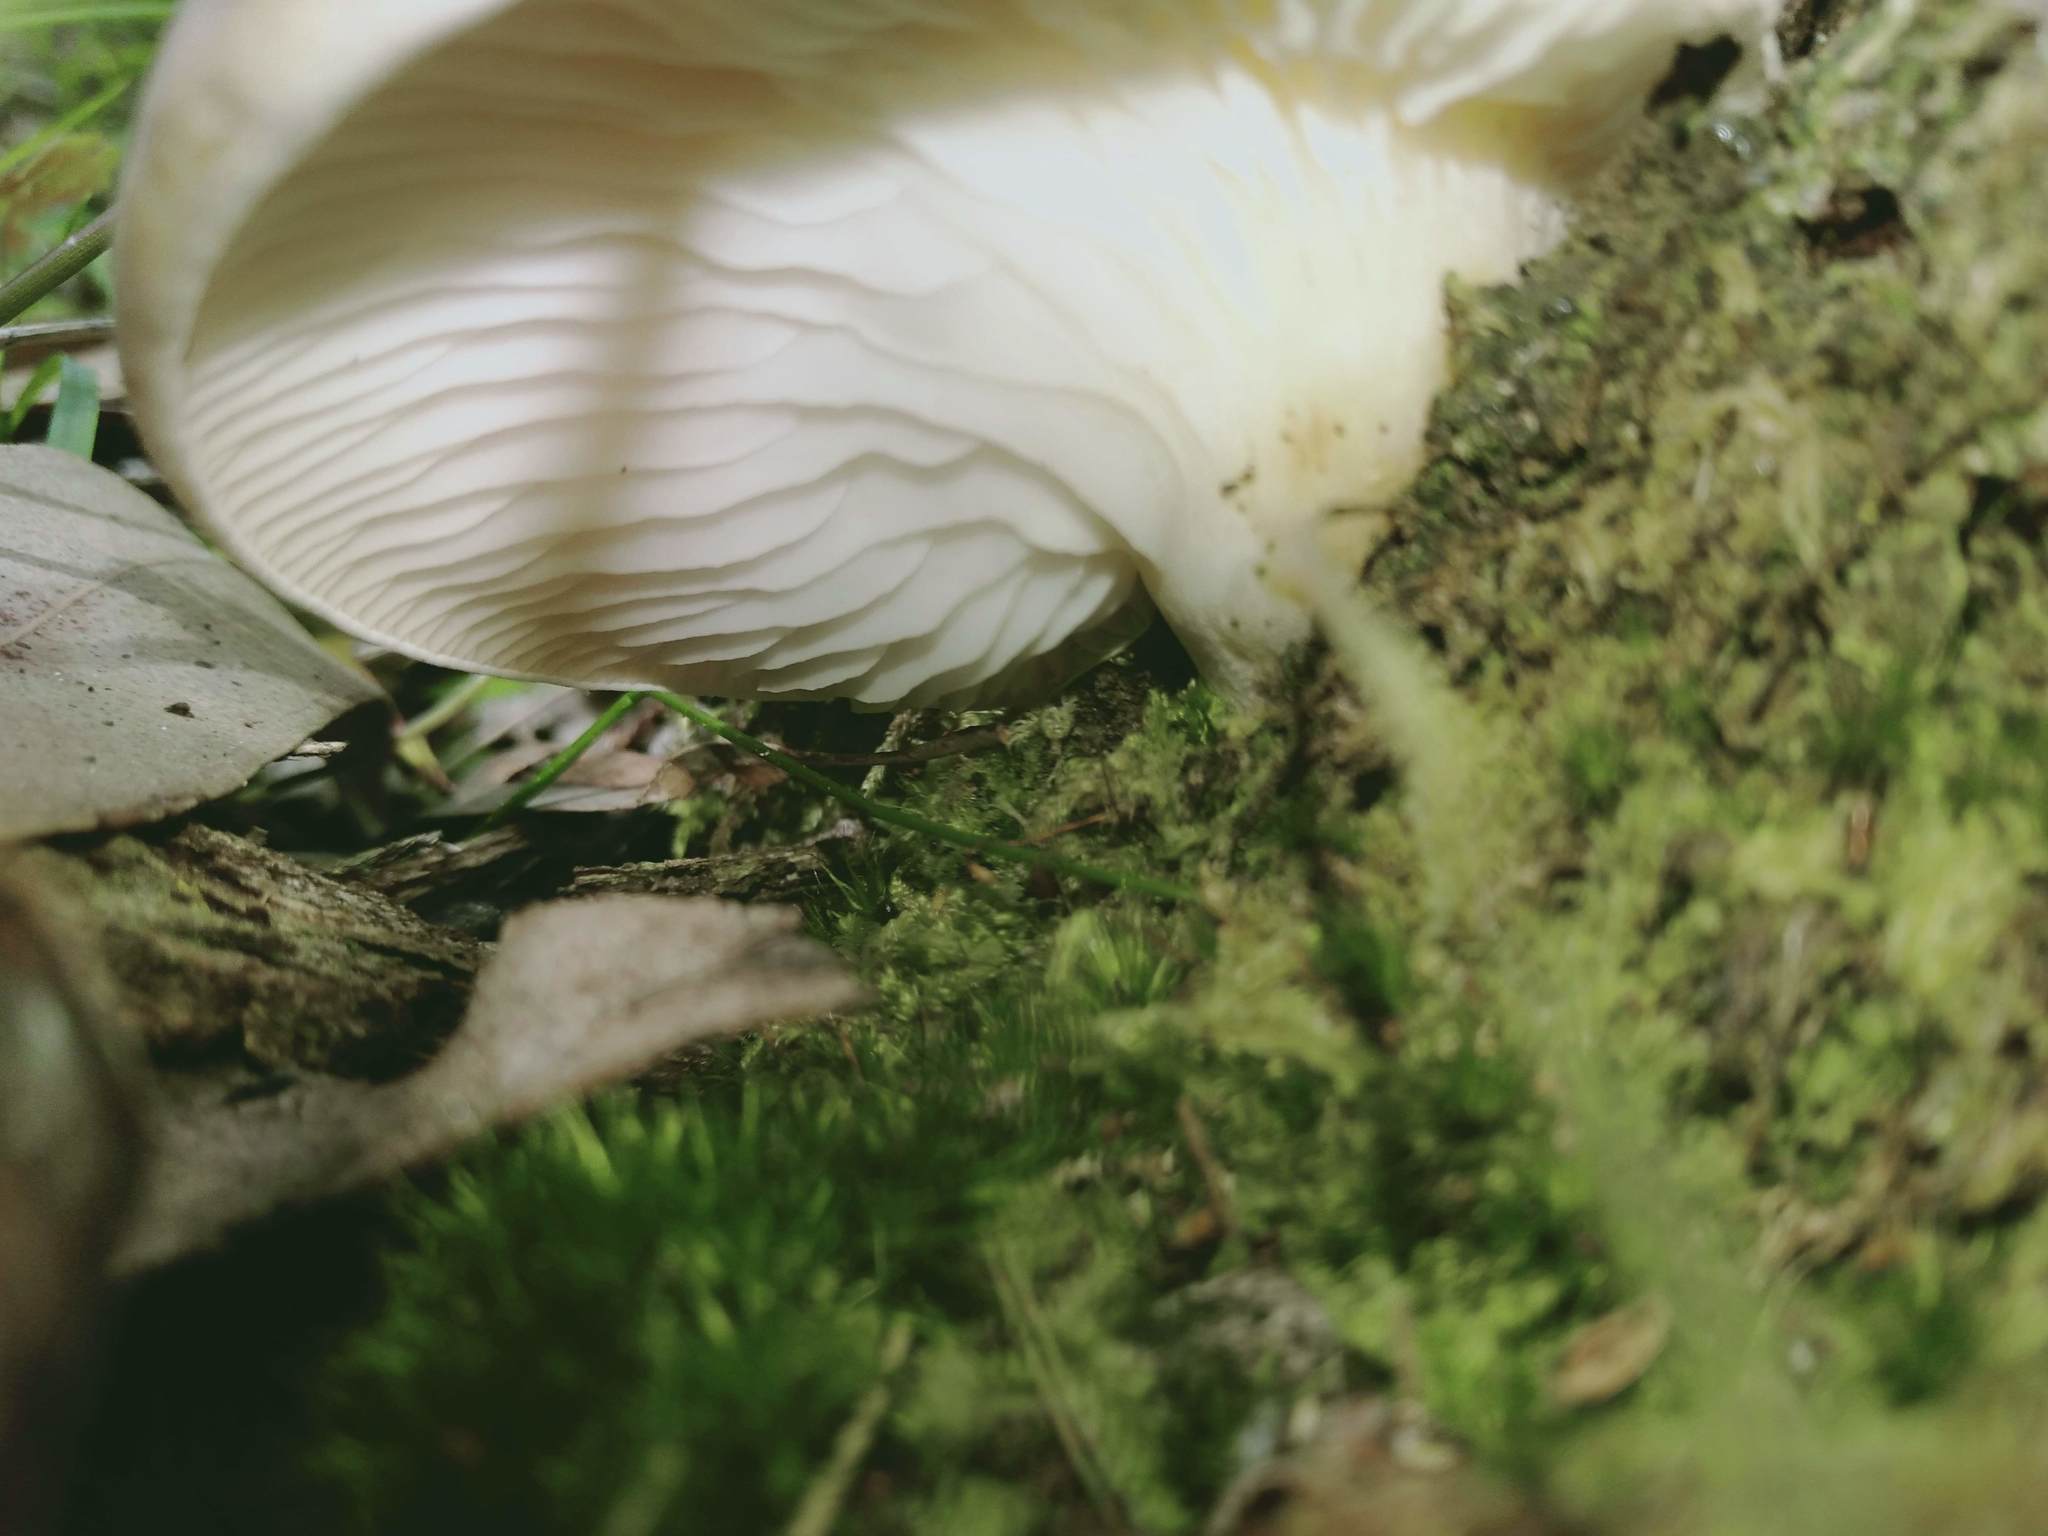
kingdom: Fungi
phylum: Basidiomycota
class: Agaricomycetes
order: Agaricales
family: Omphalotaceae
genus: Omphalotus
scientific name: Omphalotus nidiformis
